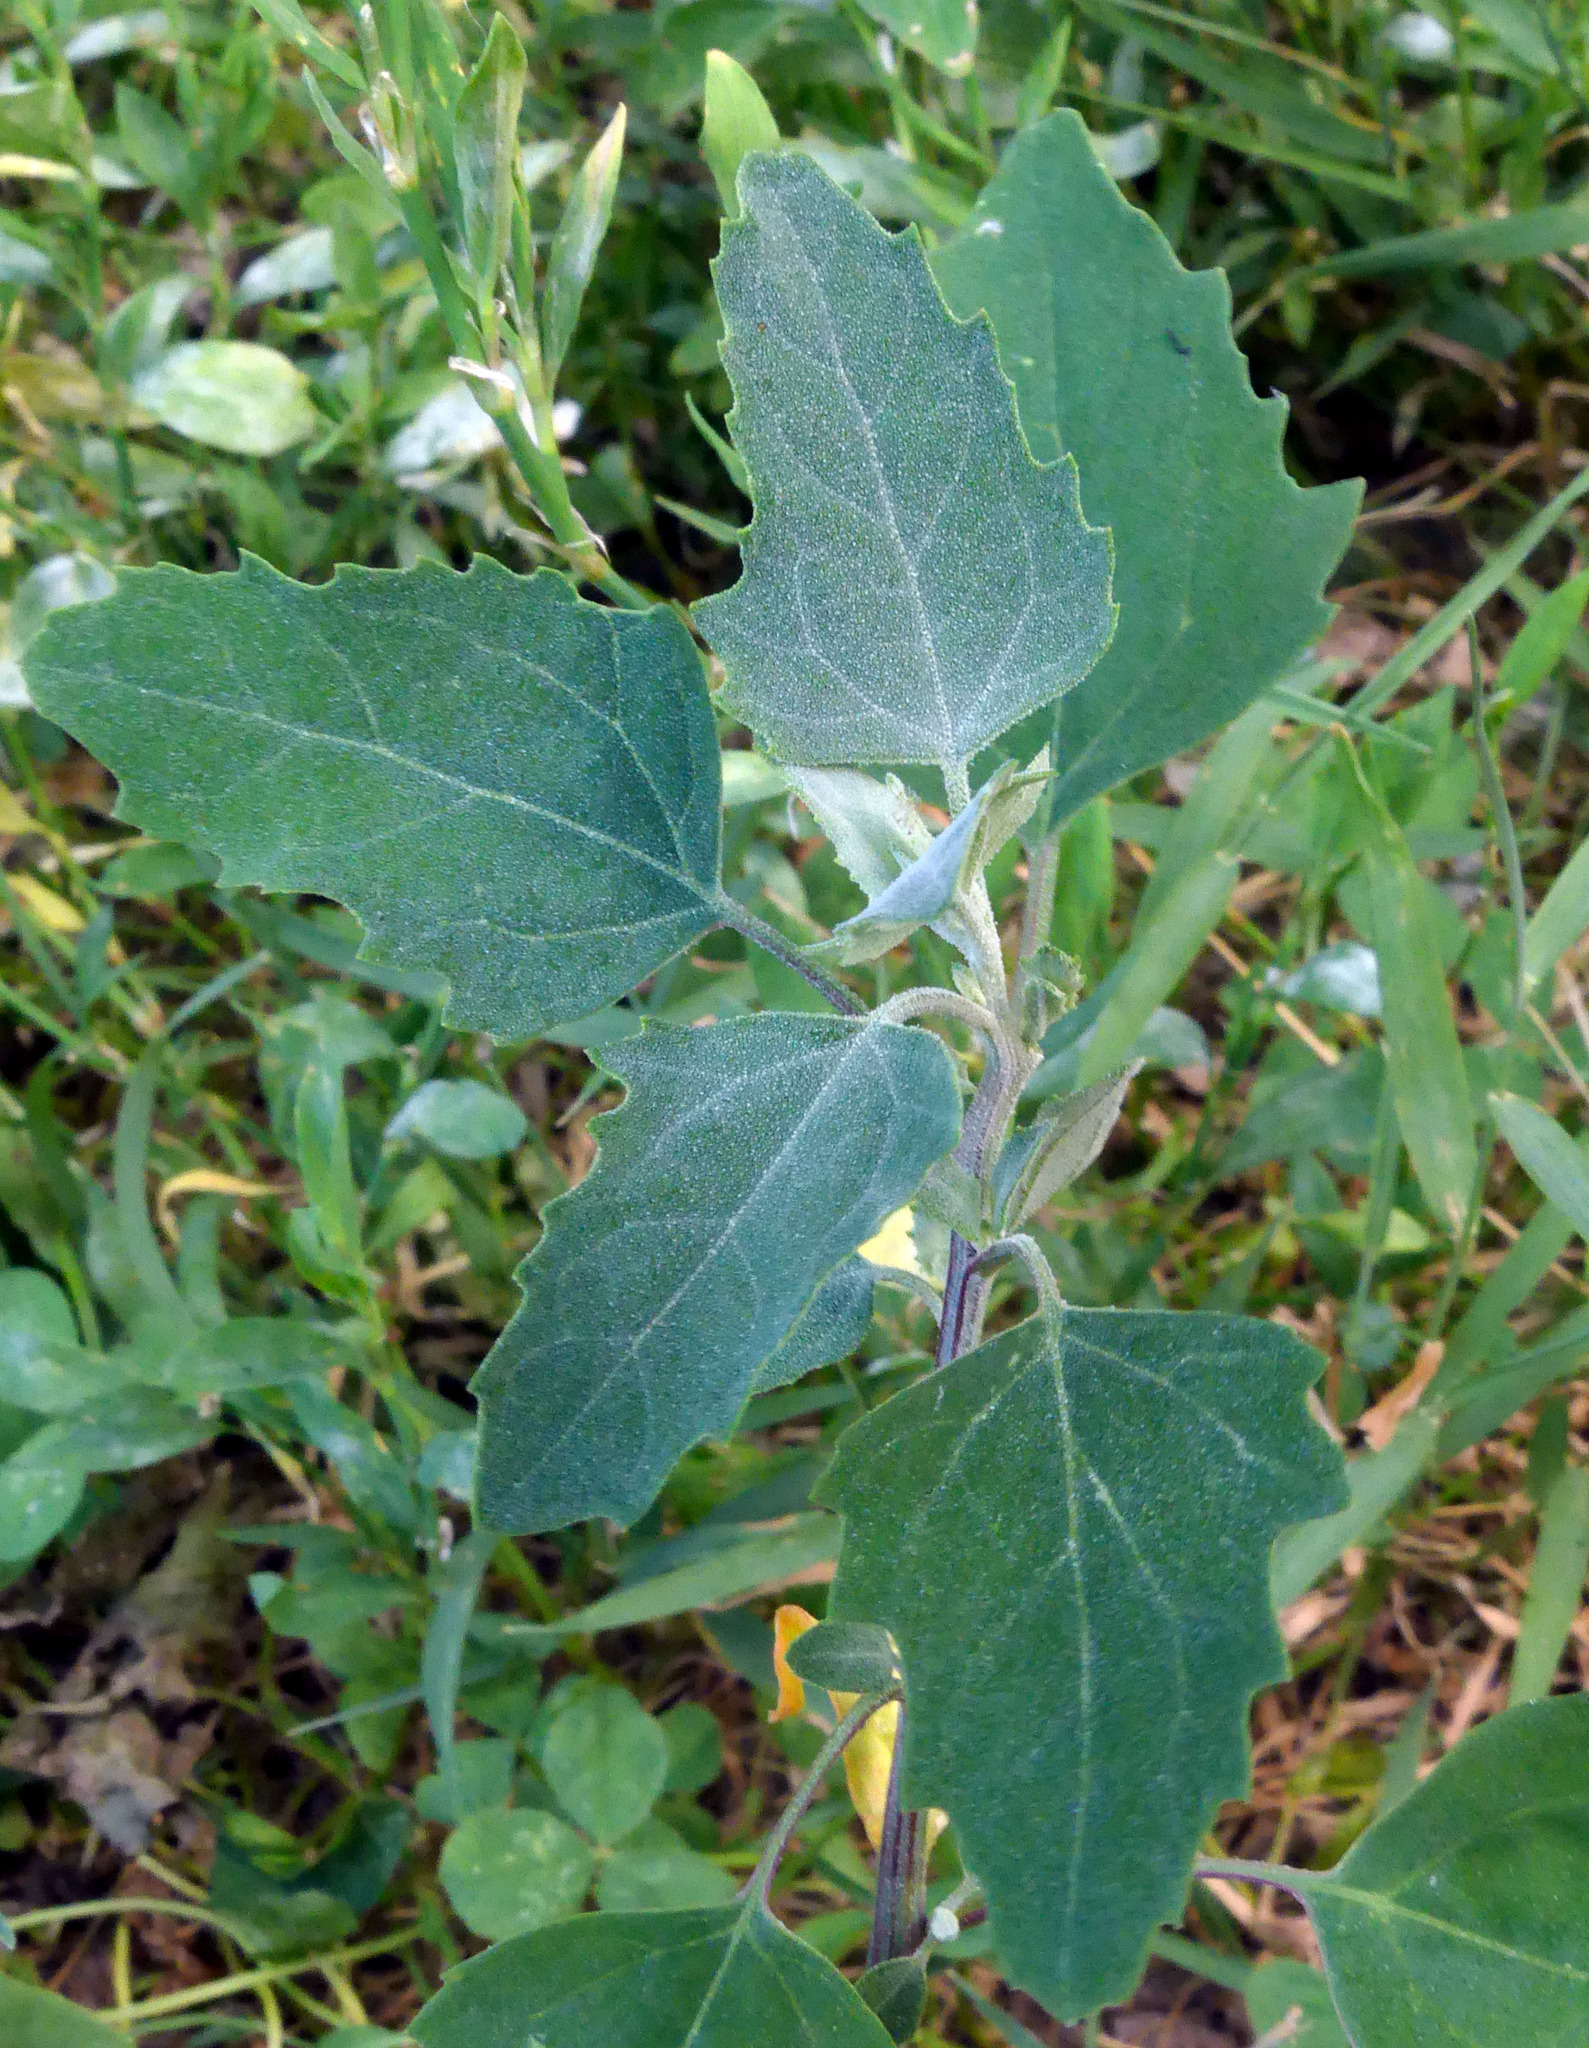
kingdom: Plantae
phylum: Tracheophyta
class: Magnoliopsida
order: Caryophyllales
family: Amaranthaceae
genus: Chenopodium
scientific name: Chenopodium album
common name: Fat-hen
